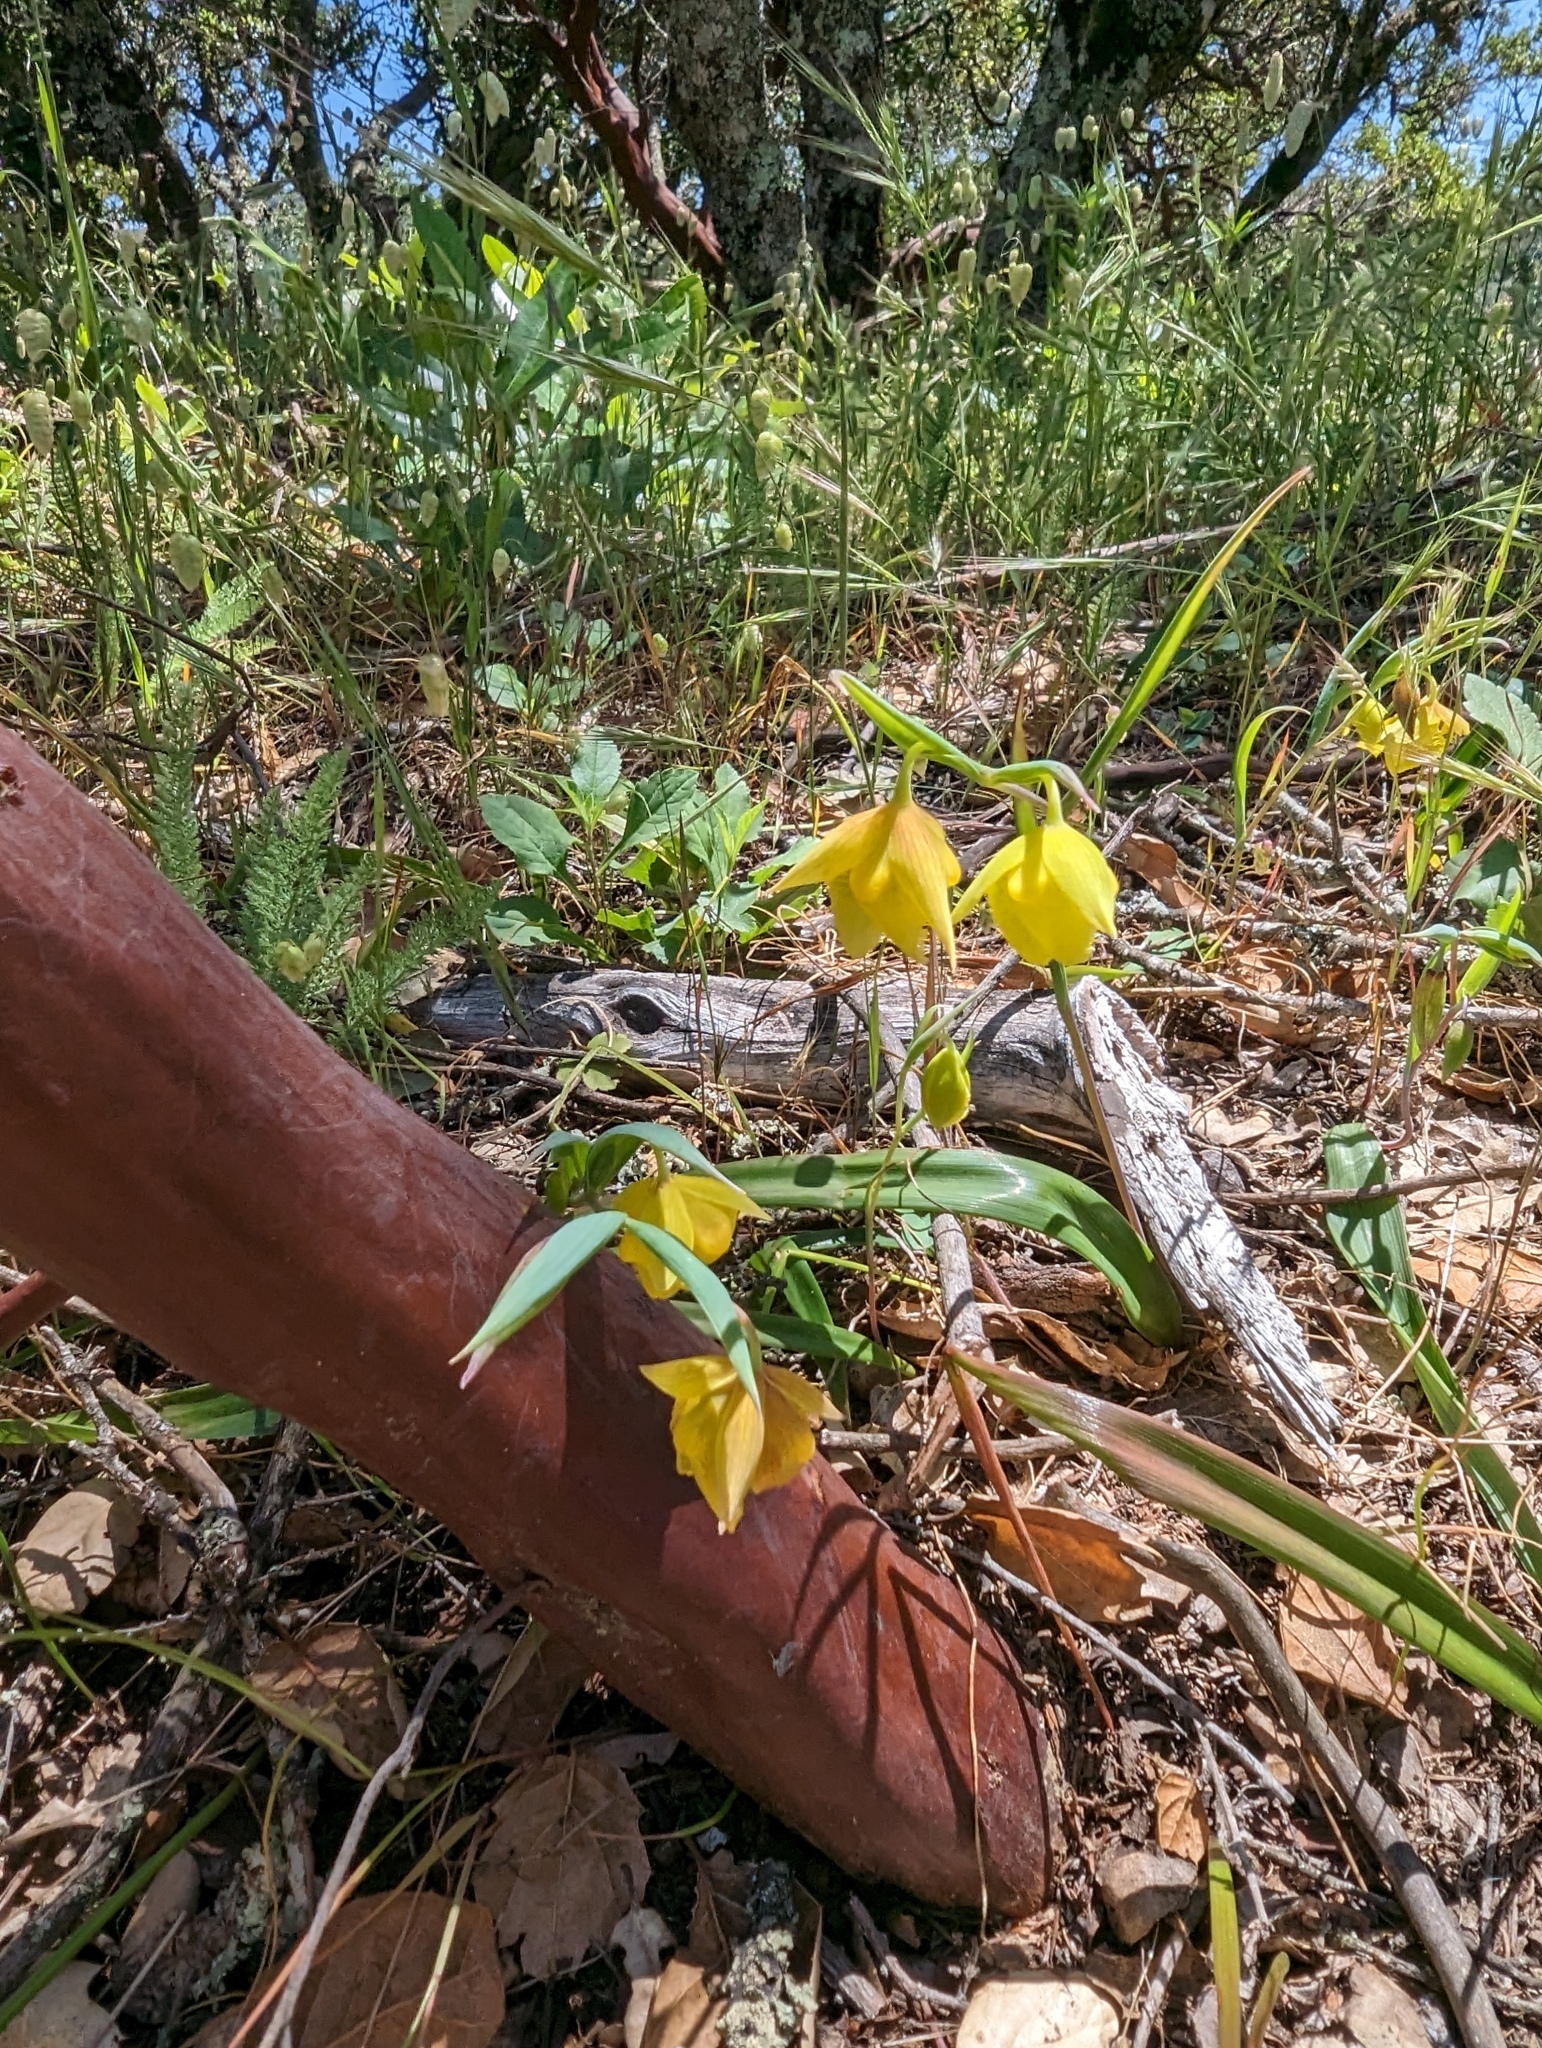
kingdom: Plantae
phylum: Tracheophyta
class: Liliopsida
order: Liliales
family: Liliaceae
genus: Calochortus
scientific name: Calochortus pulchellus
